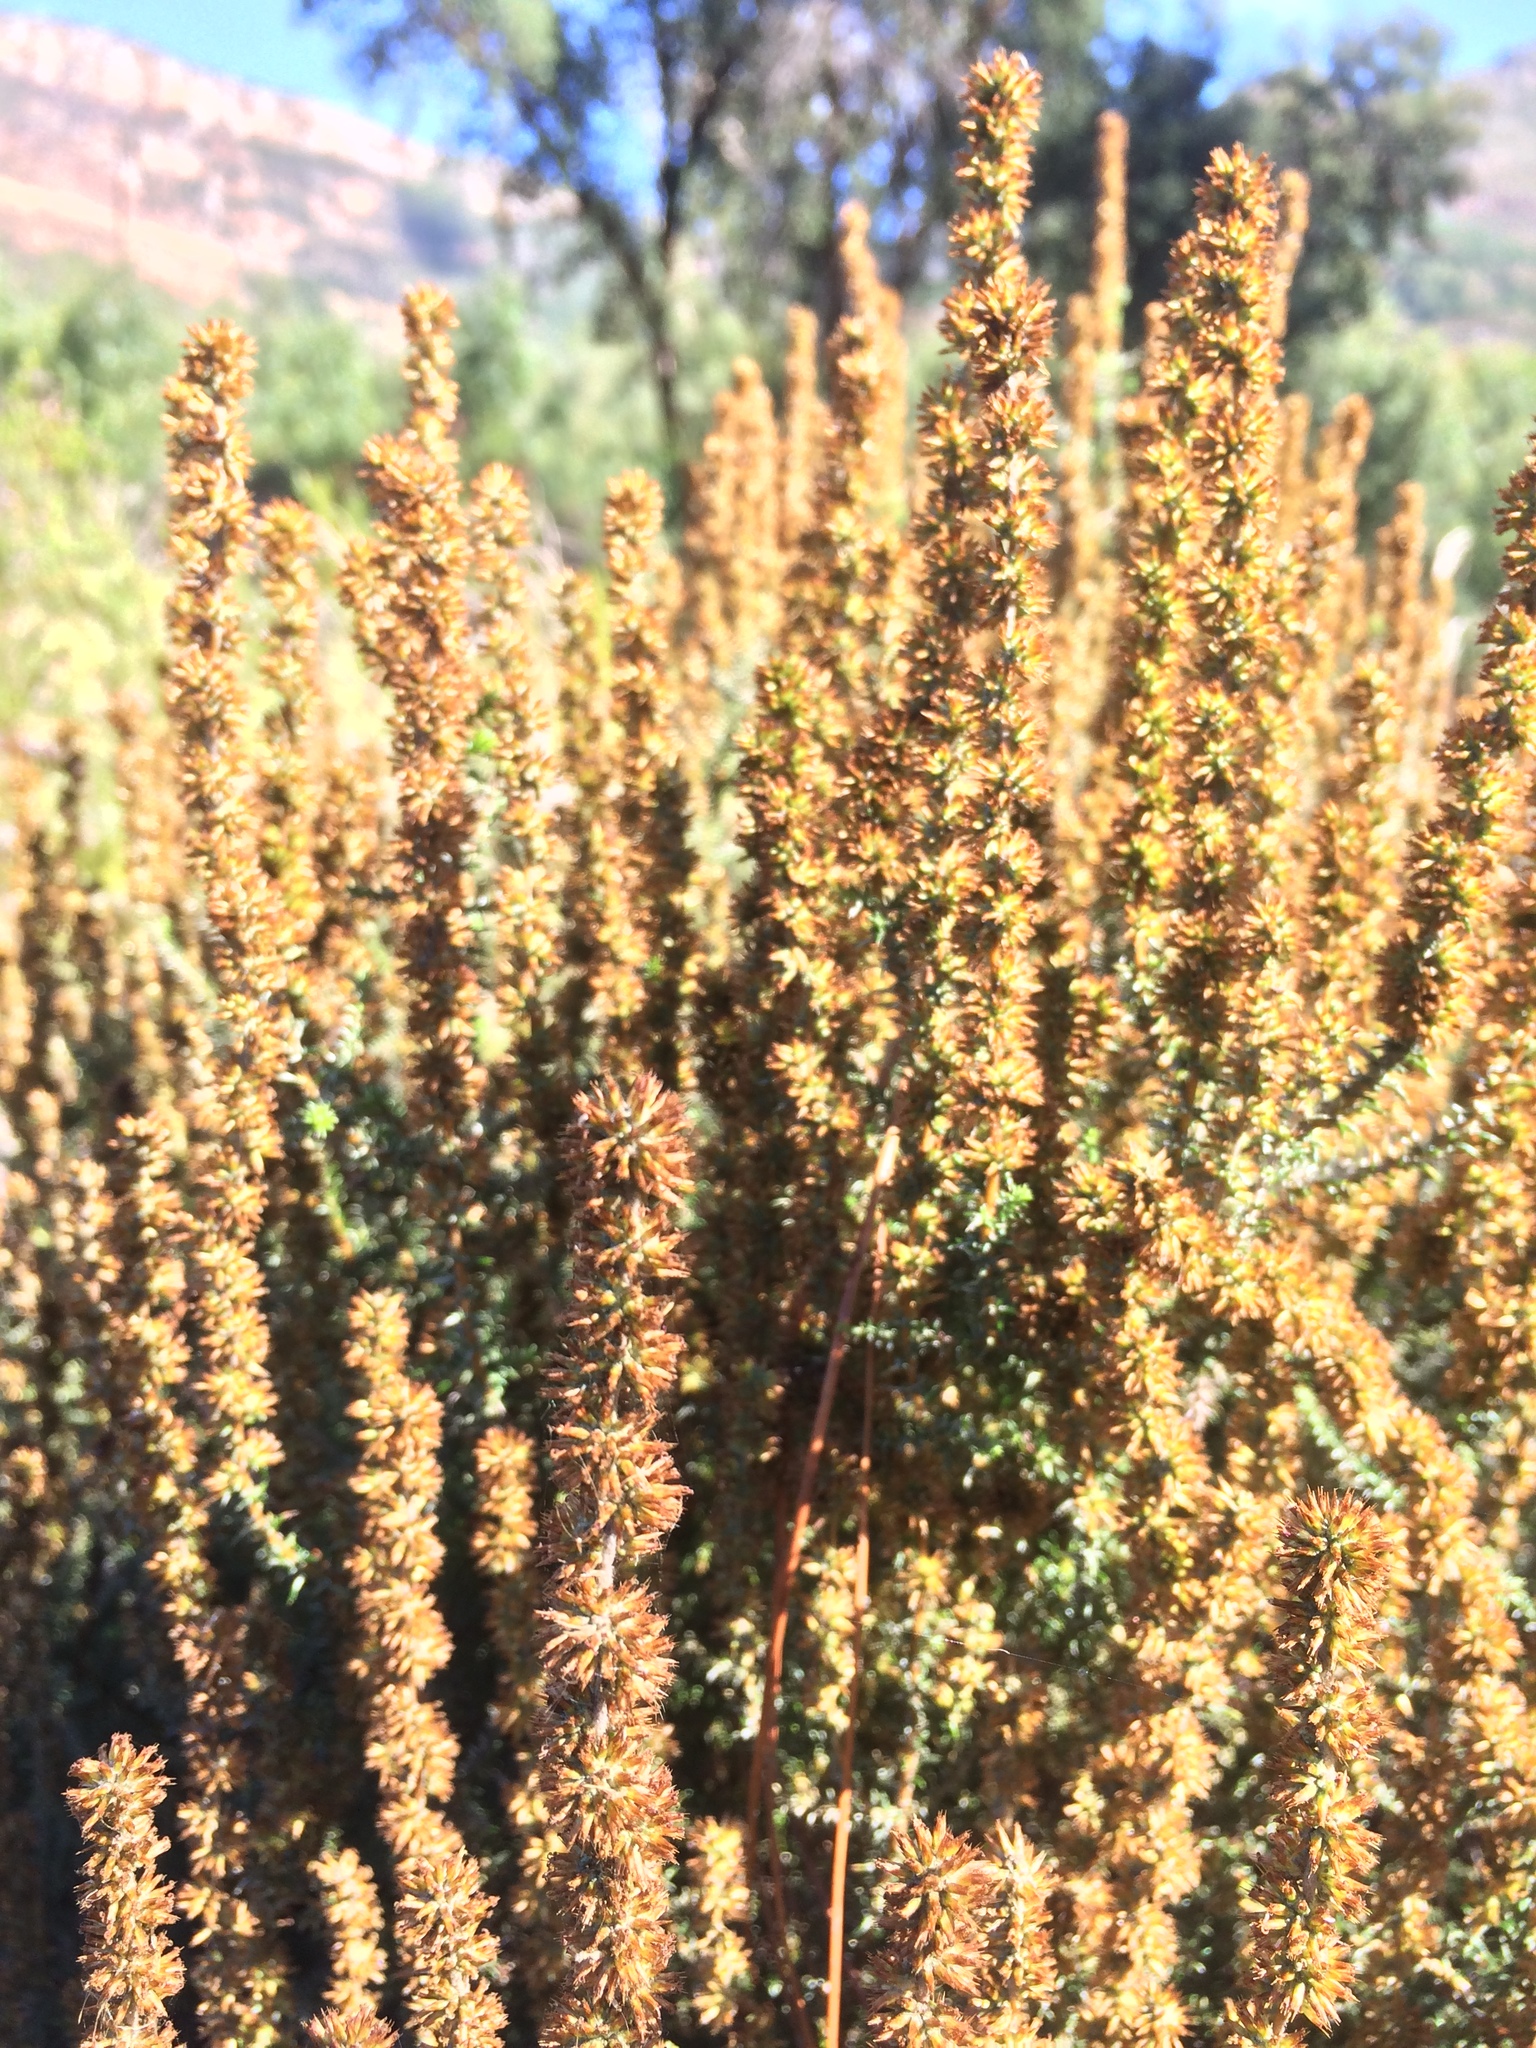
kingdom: Plantae
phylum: Tracheophyta
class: Magnoliopsida
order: Asterales
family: Asteraceae
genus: Seriphium
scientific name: Seriphium cinereum
